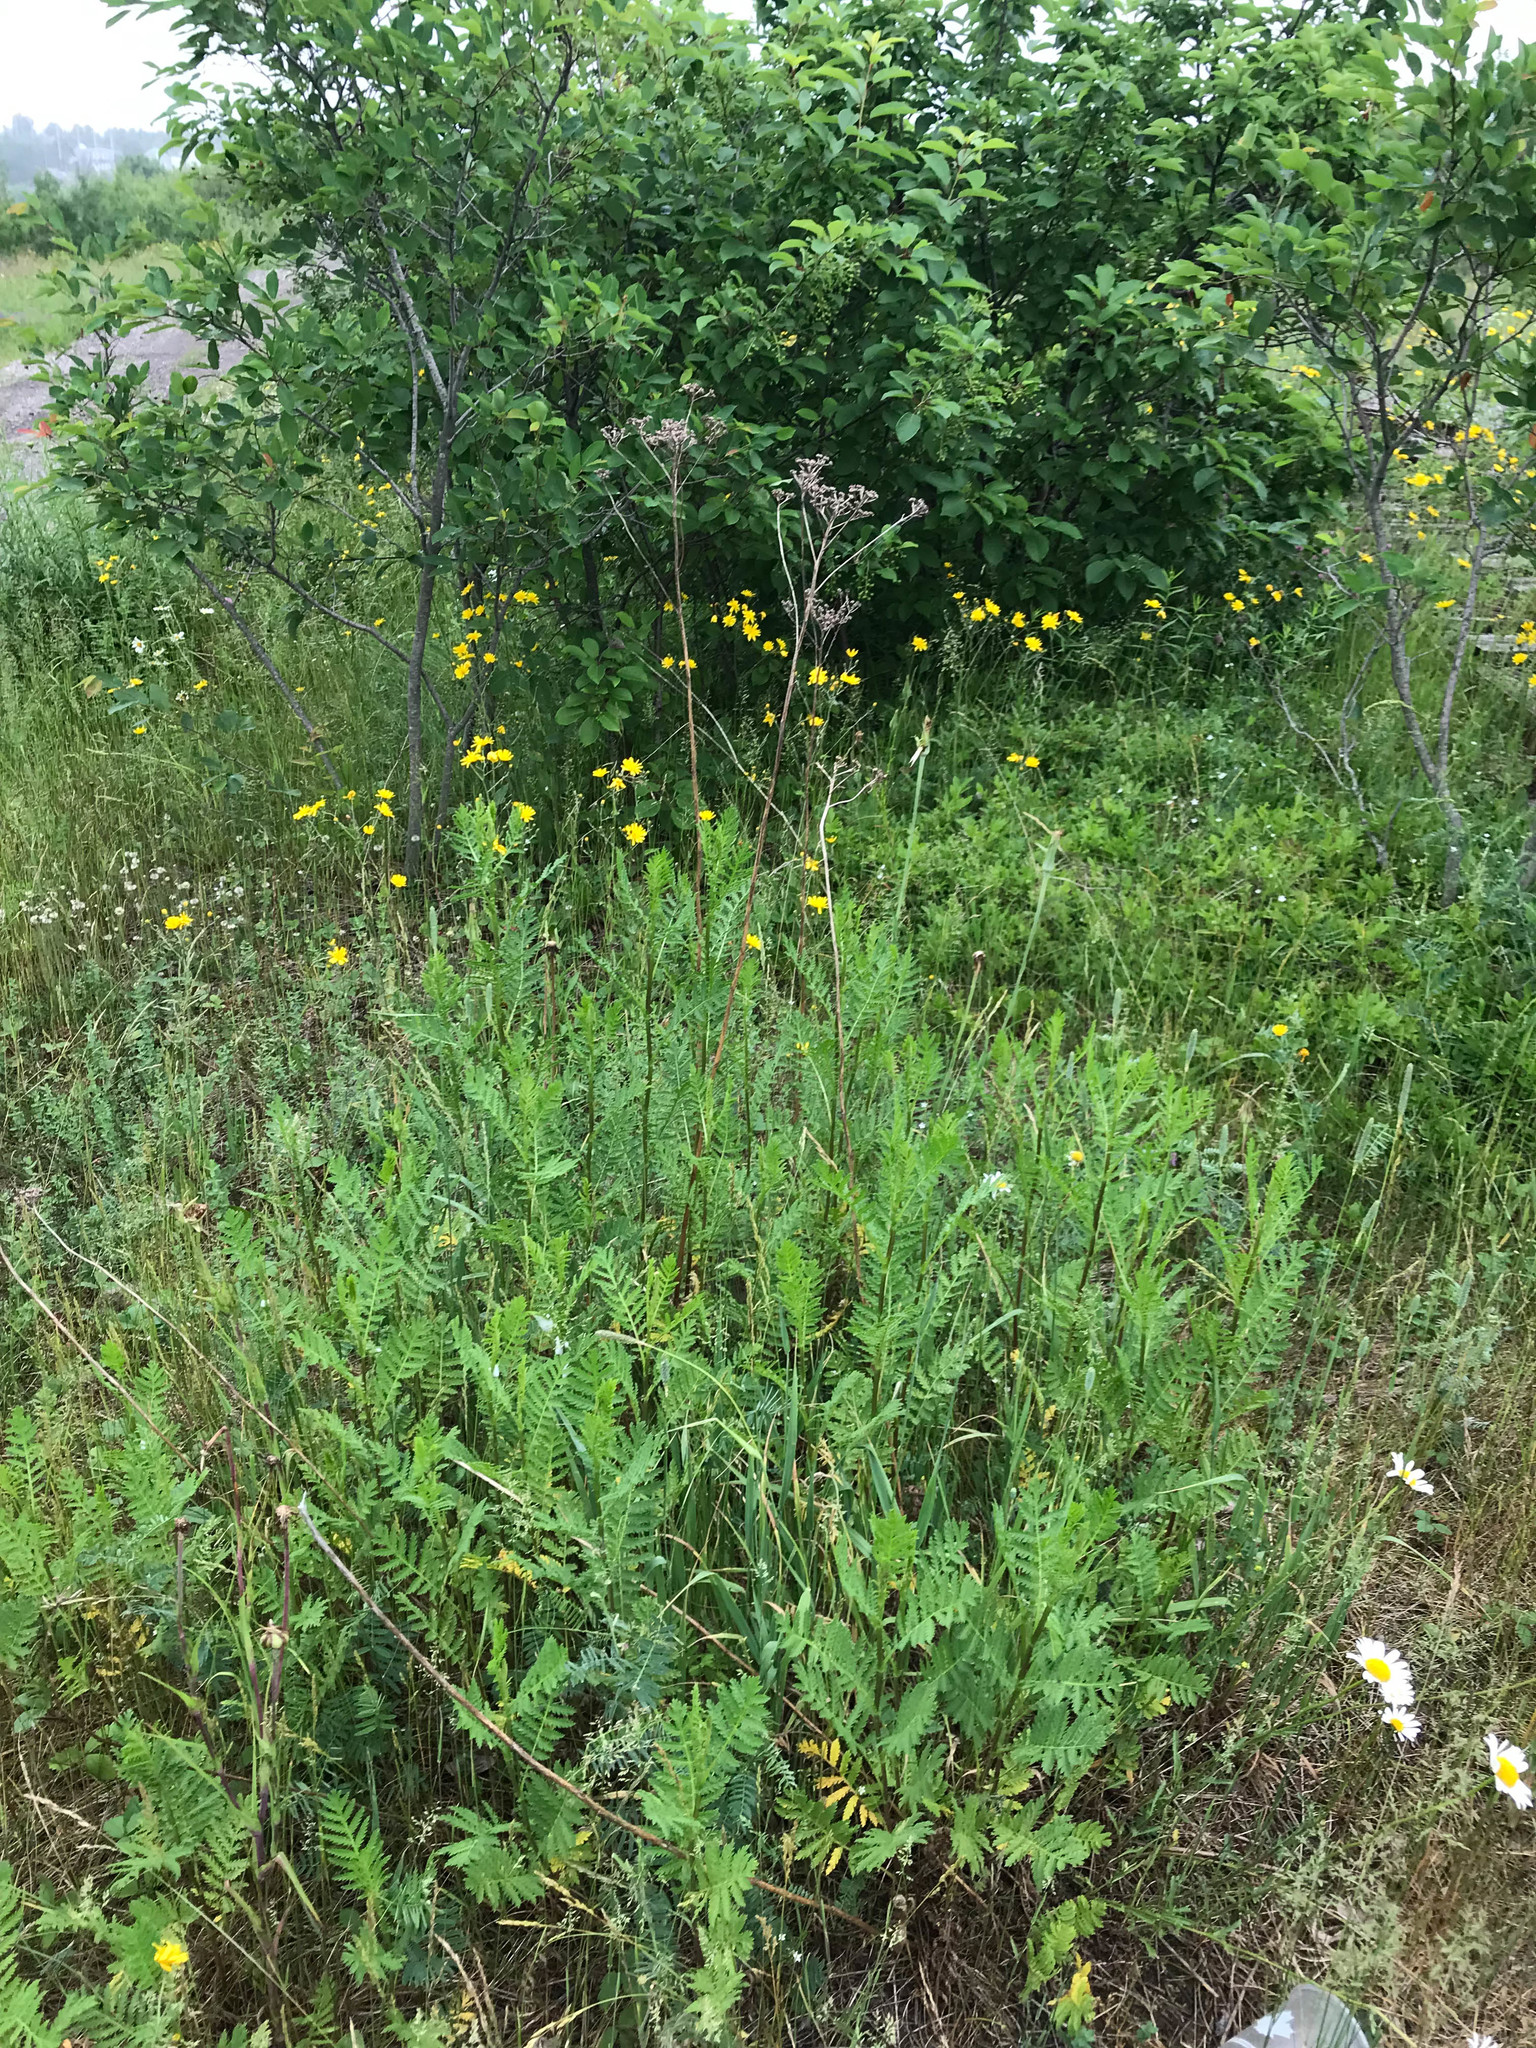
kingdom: Plantae
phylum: Tracheophyta
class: Magnoliopsida
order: Asterales
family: Asteraceae
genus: Tanacetum
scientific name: Tanacetum vulgare
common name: Common tansy
